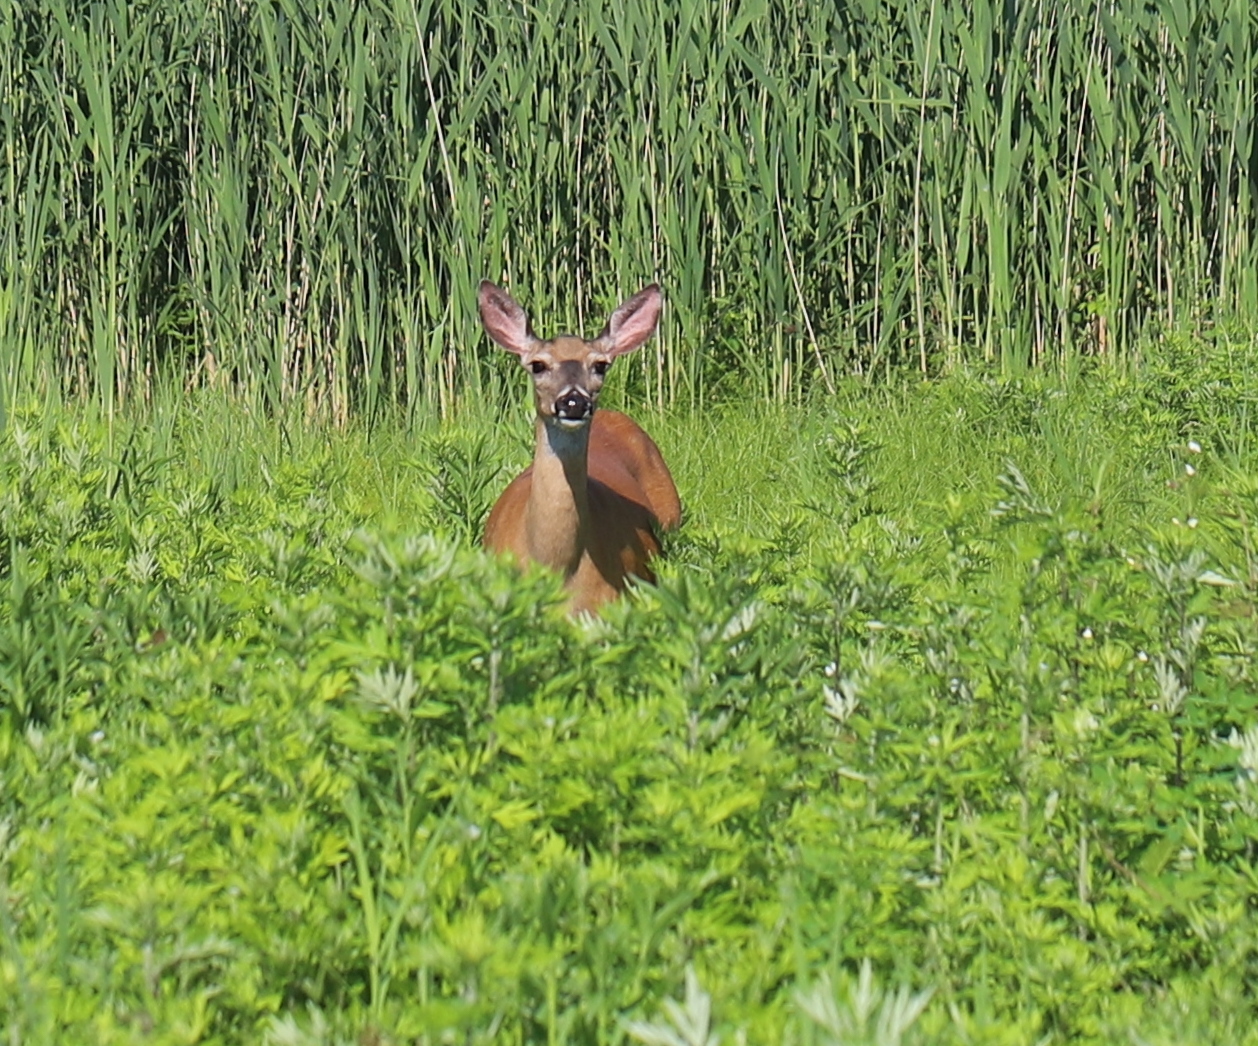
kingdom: Animalia
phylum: Chordata
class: Mammalia
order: Artiodactyla
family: Cervidae
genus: Odocoileus
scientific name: Odocoileus virginianus
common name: White-tailed deer
